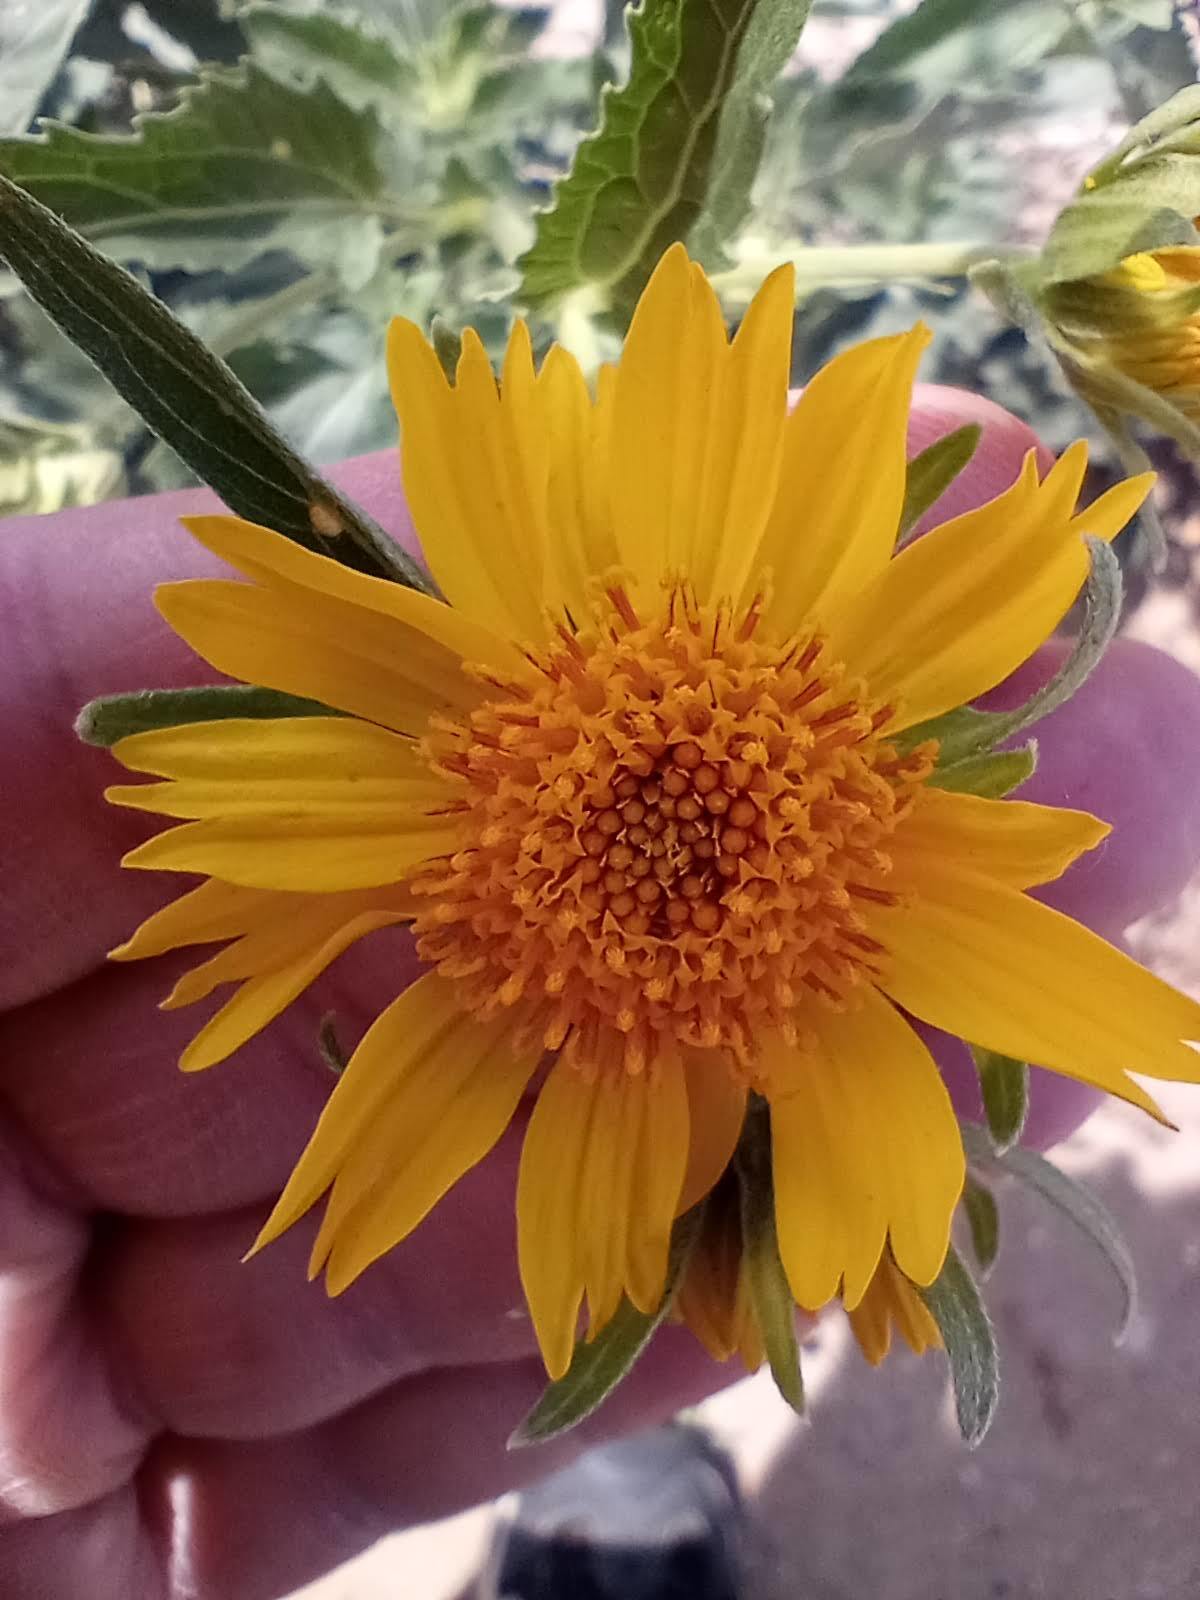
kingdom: Plantae
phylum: Tracheophyta
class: Magnoliopsida
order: Asterales
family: Asteraceae
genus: Verbesina
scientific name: Verbesina encelioides
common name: Golden crownbeard
